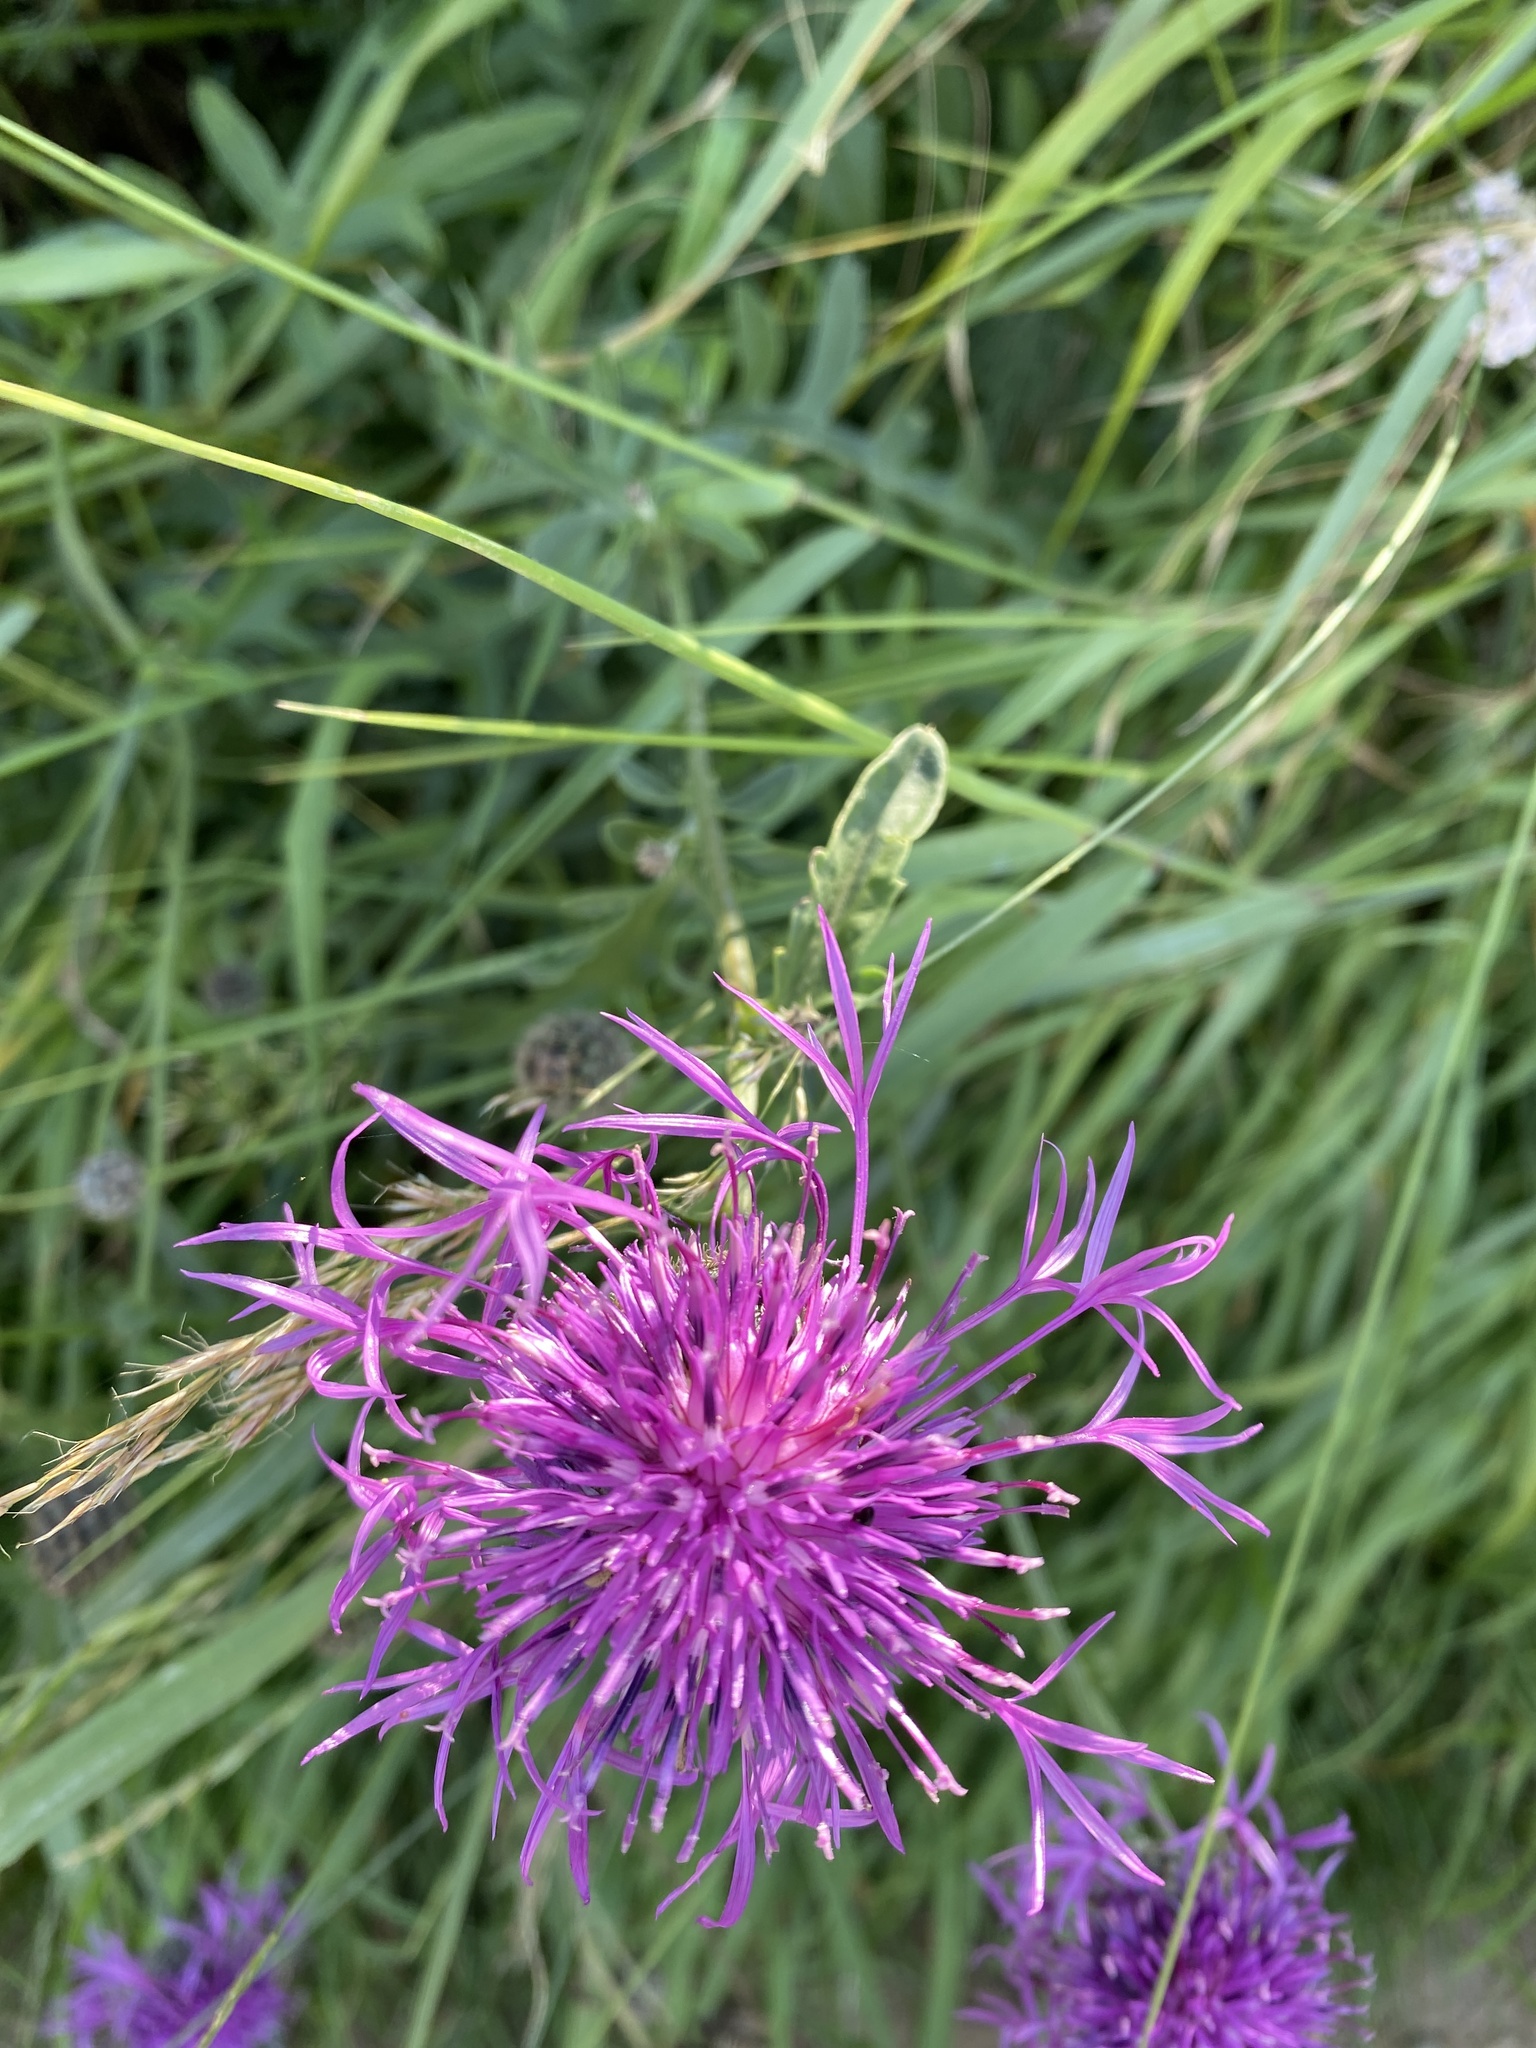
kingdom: Plantae
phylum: Tracheophyta
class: Magnoliopsida
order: Asterales
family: Asteraceae
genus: Centaurea
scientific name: Centaurea scabiosa
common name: Greater knapweed
